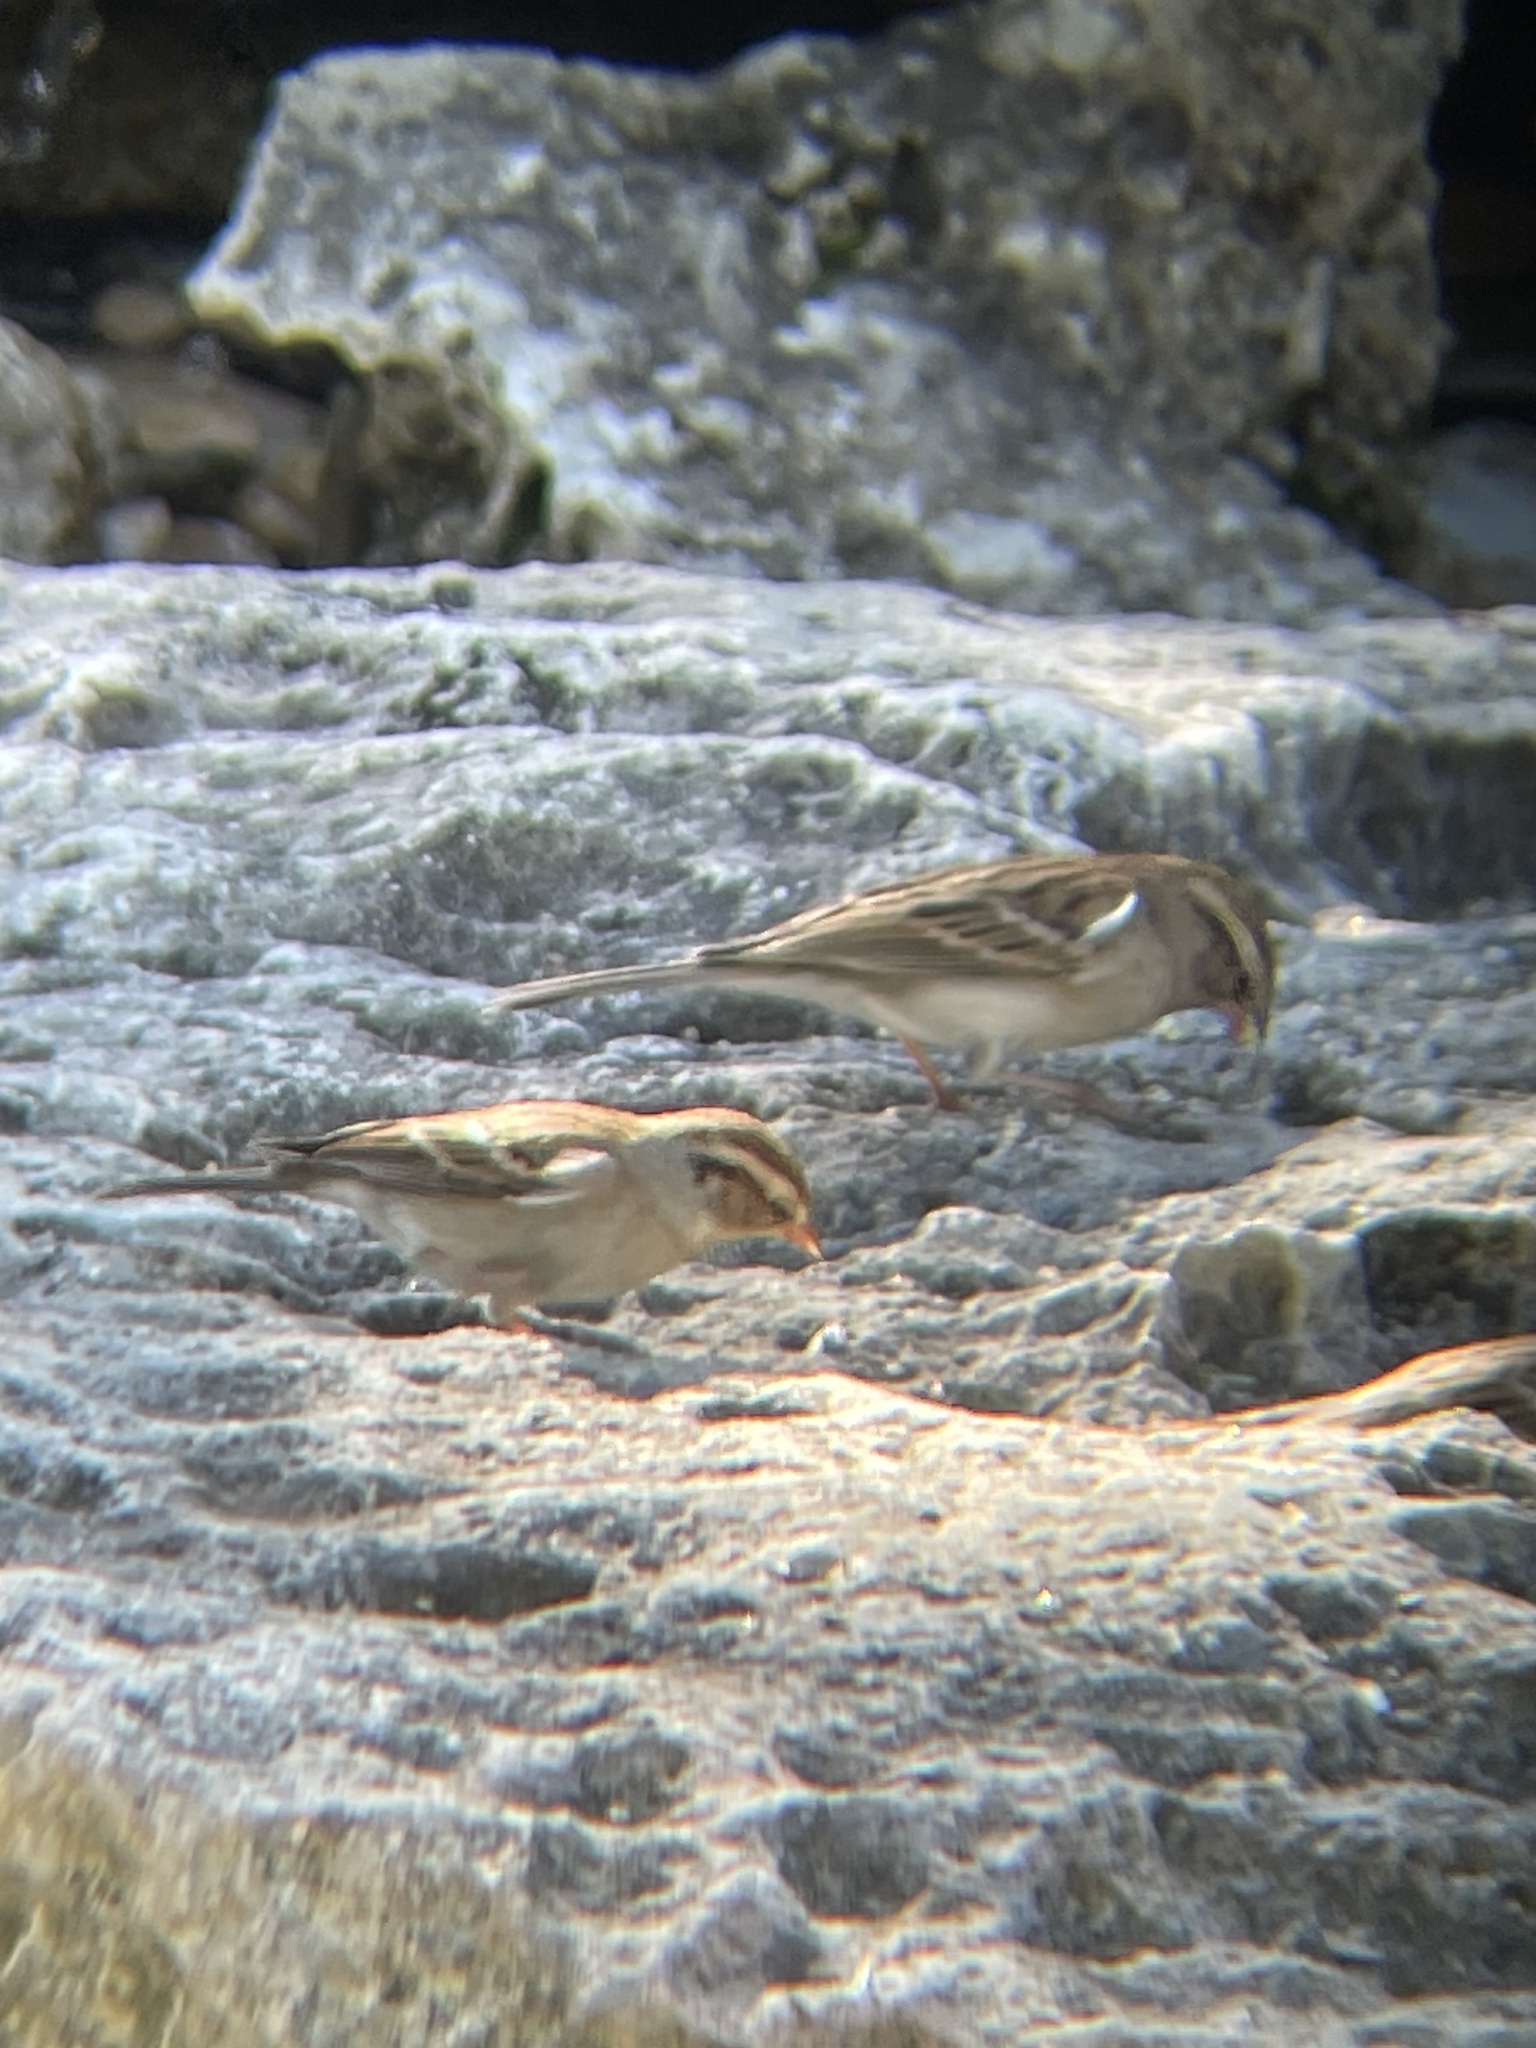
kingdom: Animalia
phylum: Chordata
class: Aves
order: Passeriformes
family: Passerellidae
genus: Spizella
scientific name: Spizella passerina
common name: Chipping sparrow
